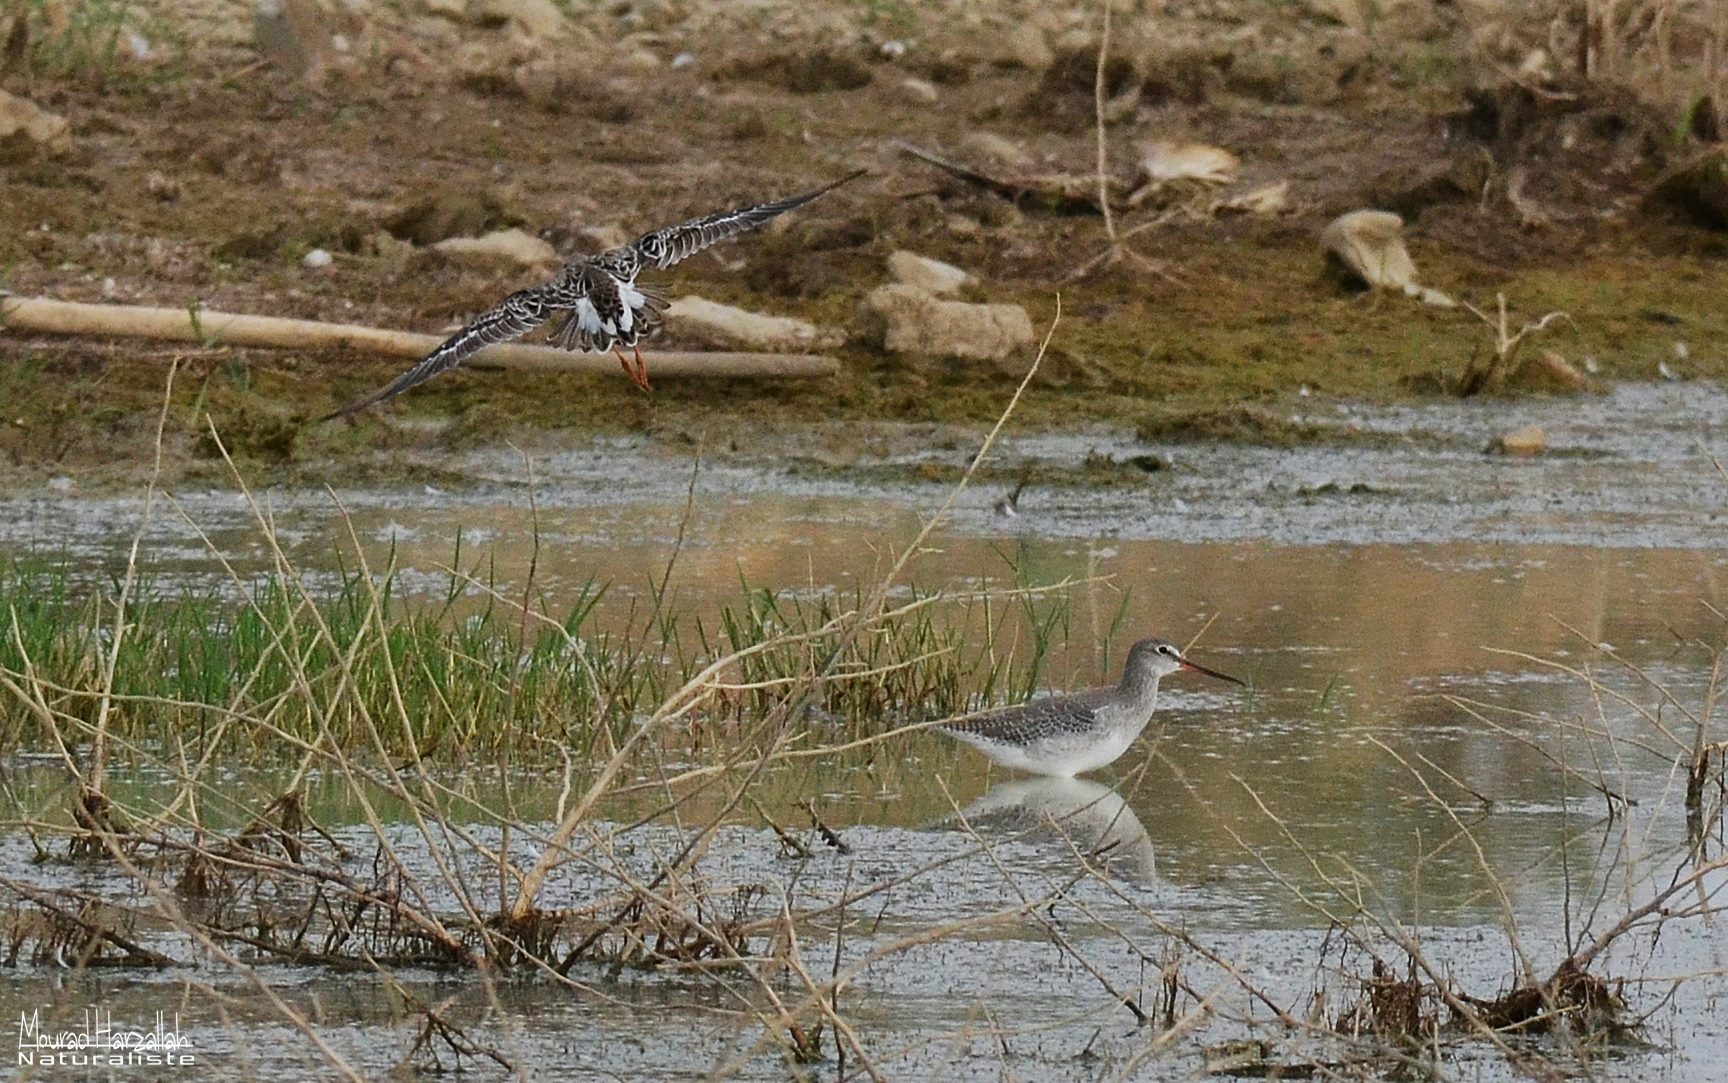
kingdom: Animalia
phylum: Chordata
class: Aves
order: Charadriiformes
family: Scolopacidae
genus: Tringa
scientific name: Tringa erythropus
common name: Spotted redshank
